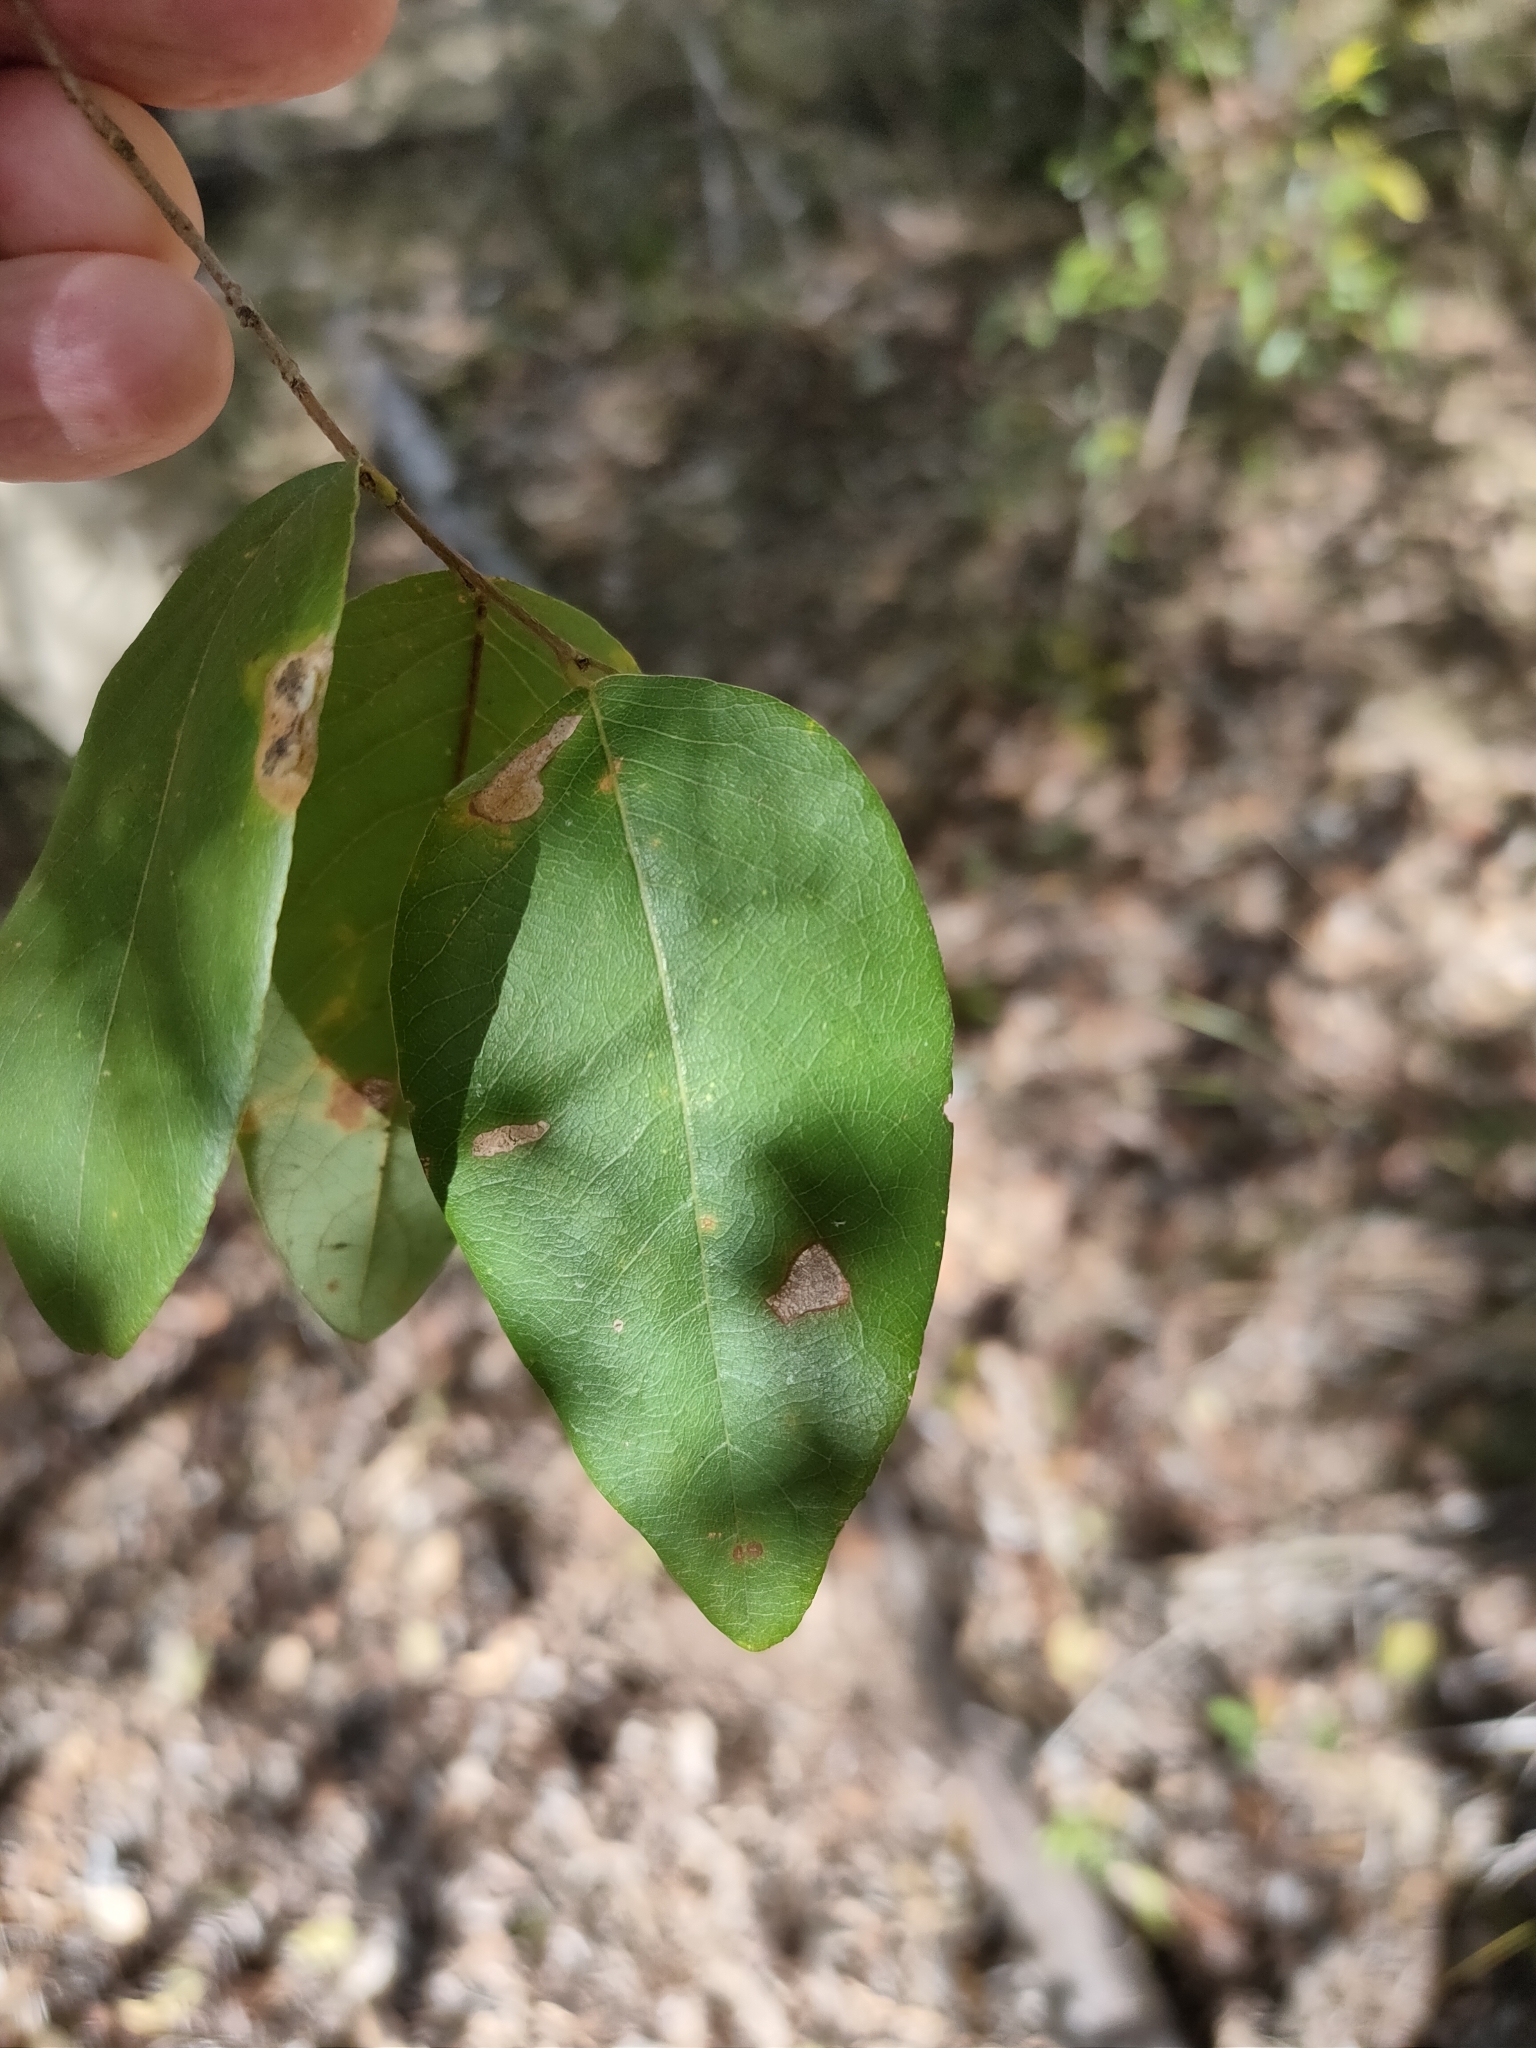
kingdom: Plantae
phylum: Tracheophyta
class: Magnoliopsida
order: Malpighiales
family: Phyllanthaceae
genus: Bridelia
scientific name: Bridelia leichhardtii
